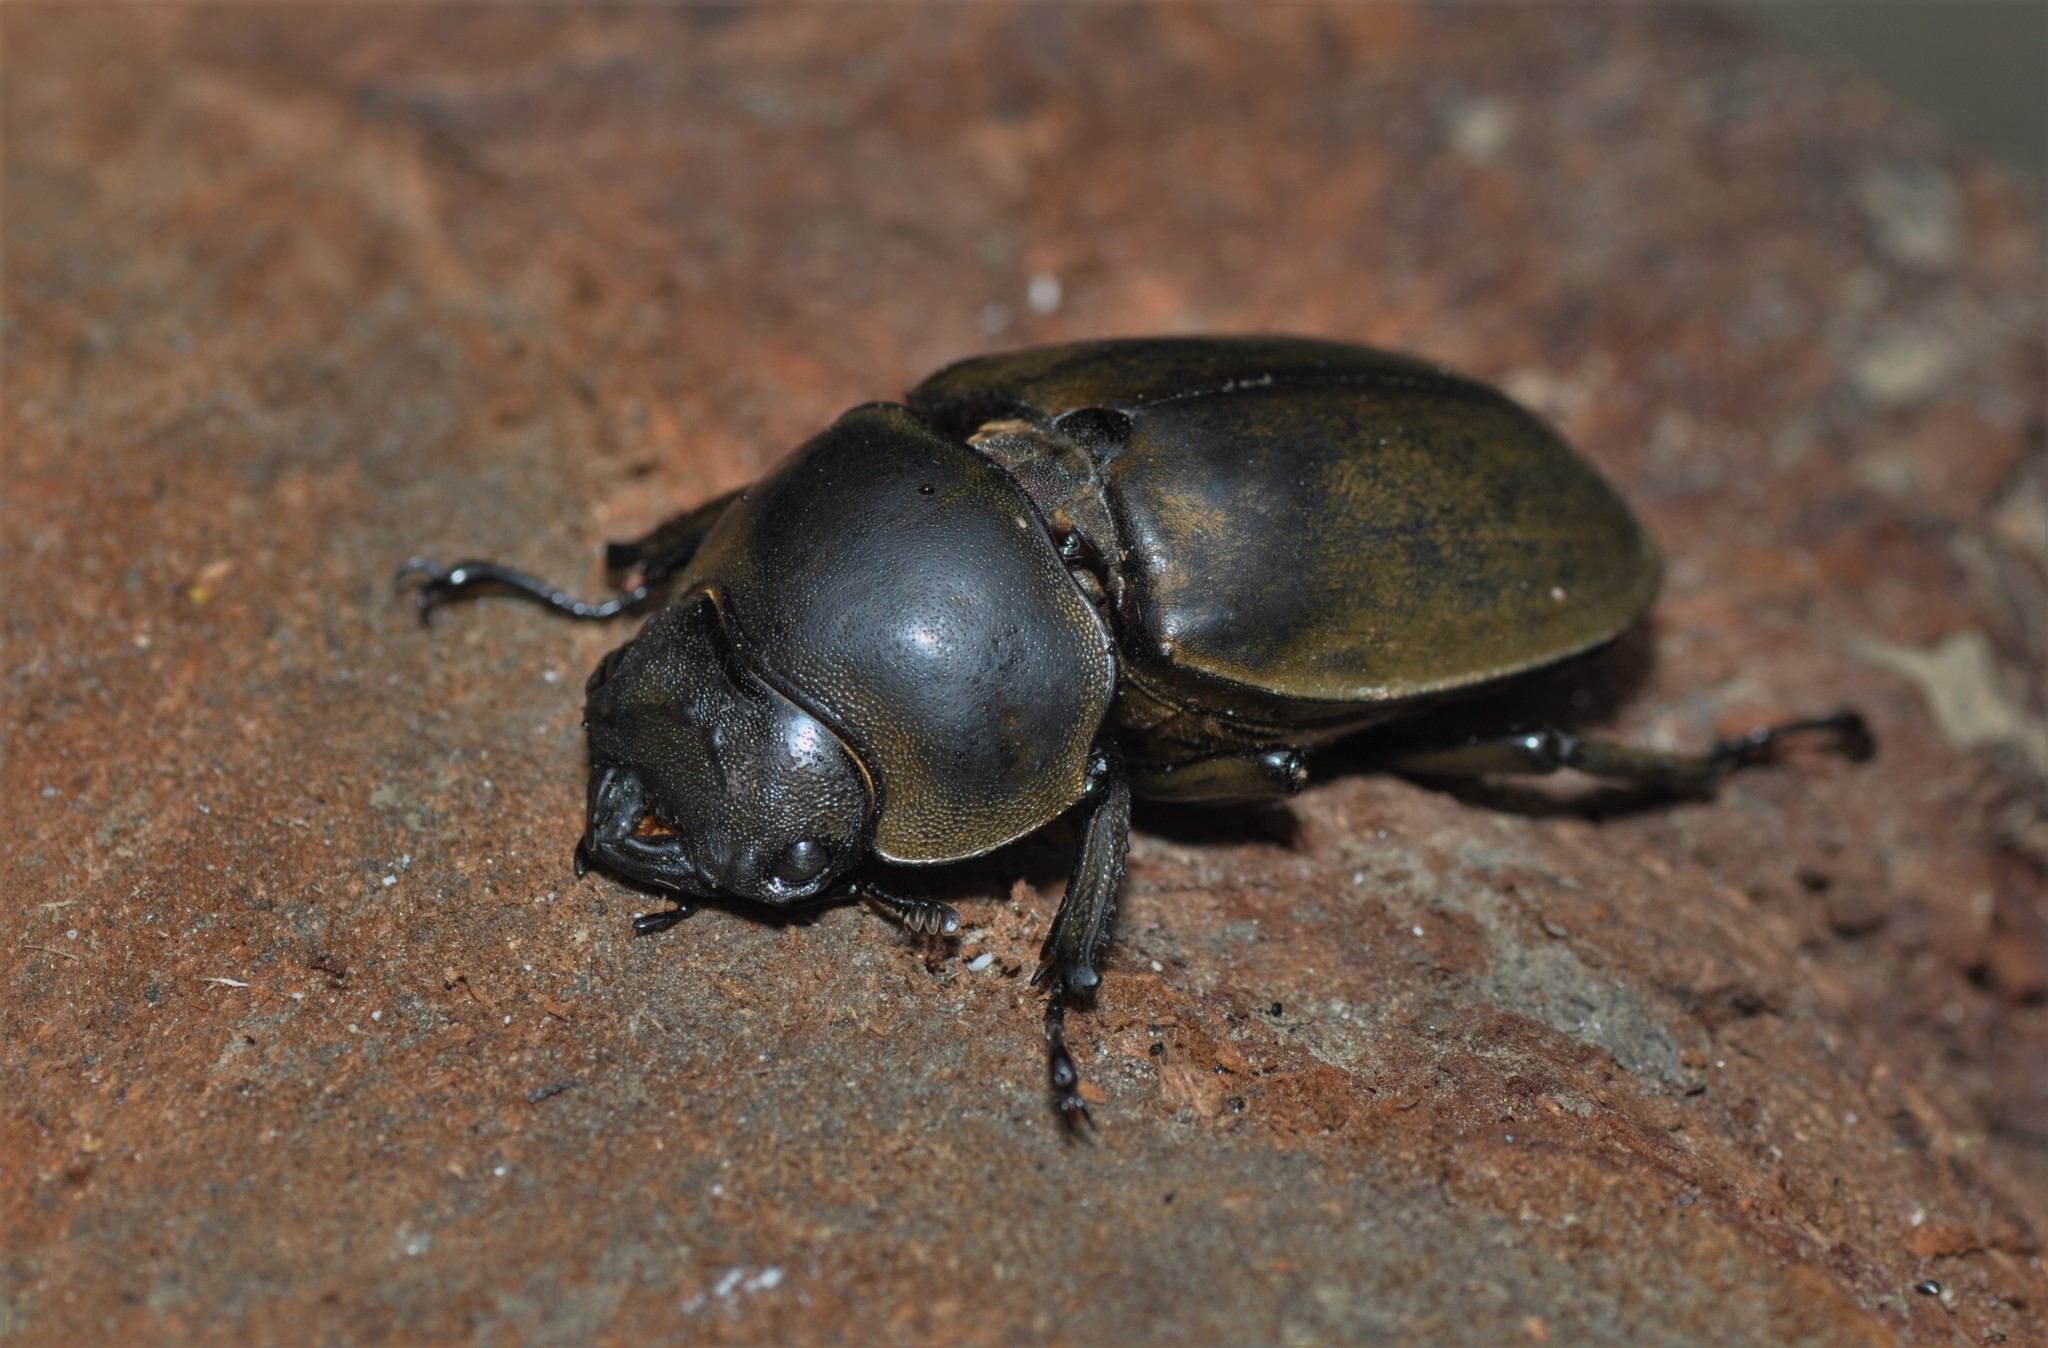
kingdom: Animalia
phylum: Arthropoda
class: Insecta
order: Coleoptera
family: Lucanidae
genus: Allotopus
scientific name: Allotopus moellenkampi
